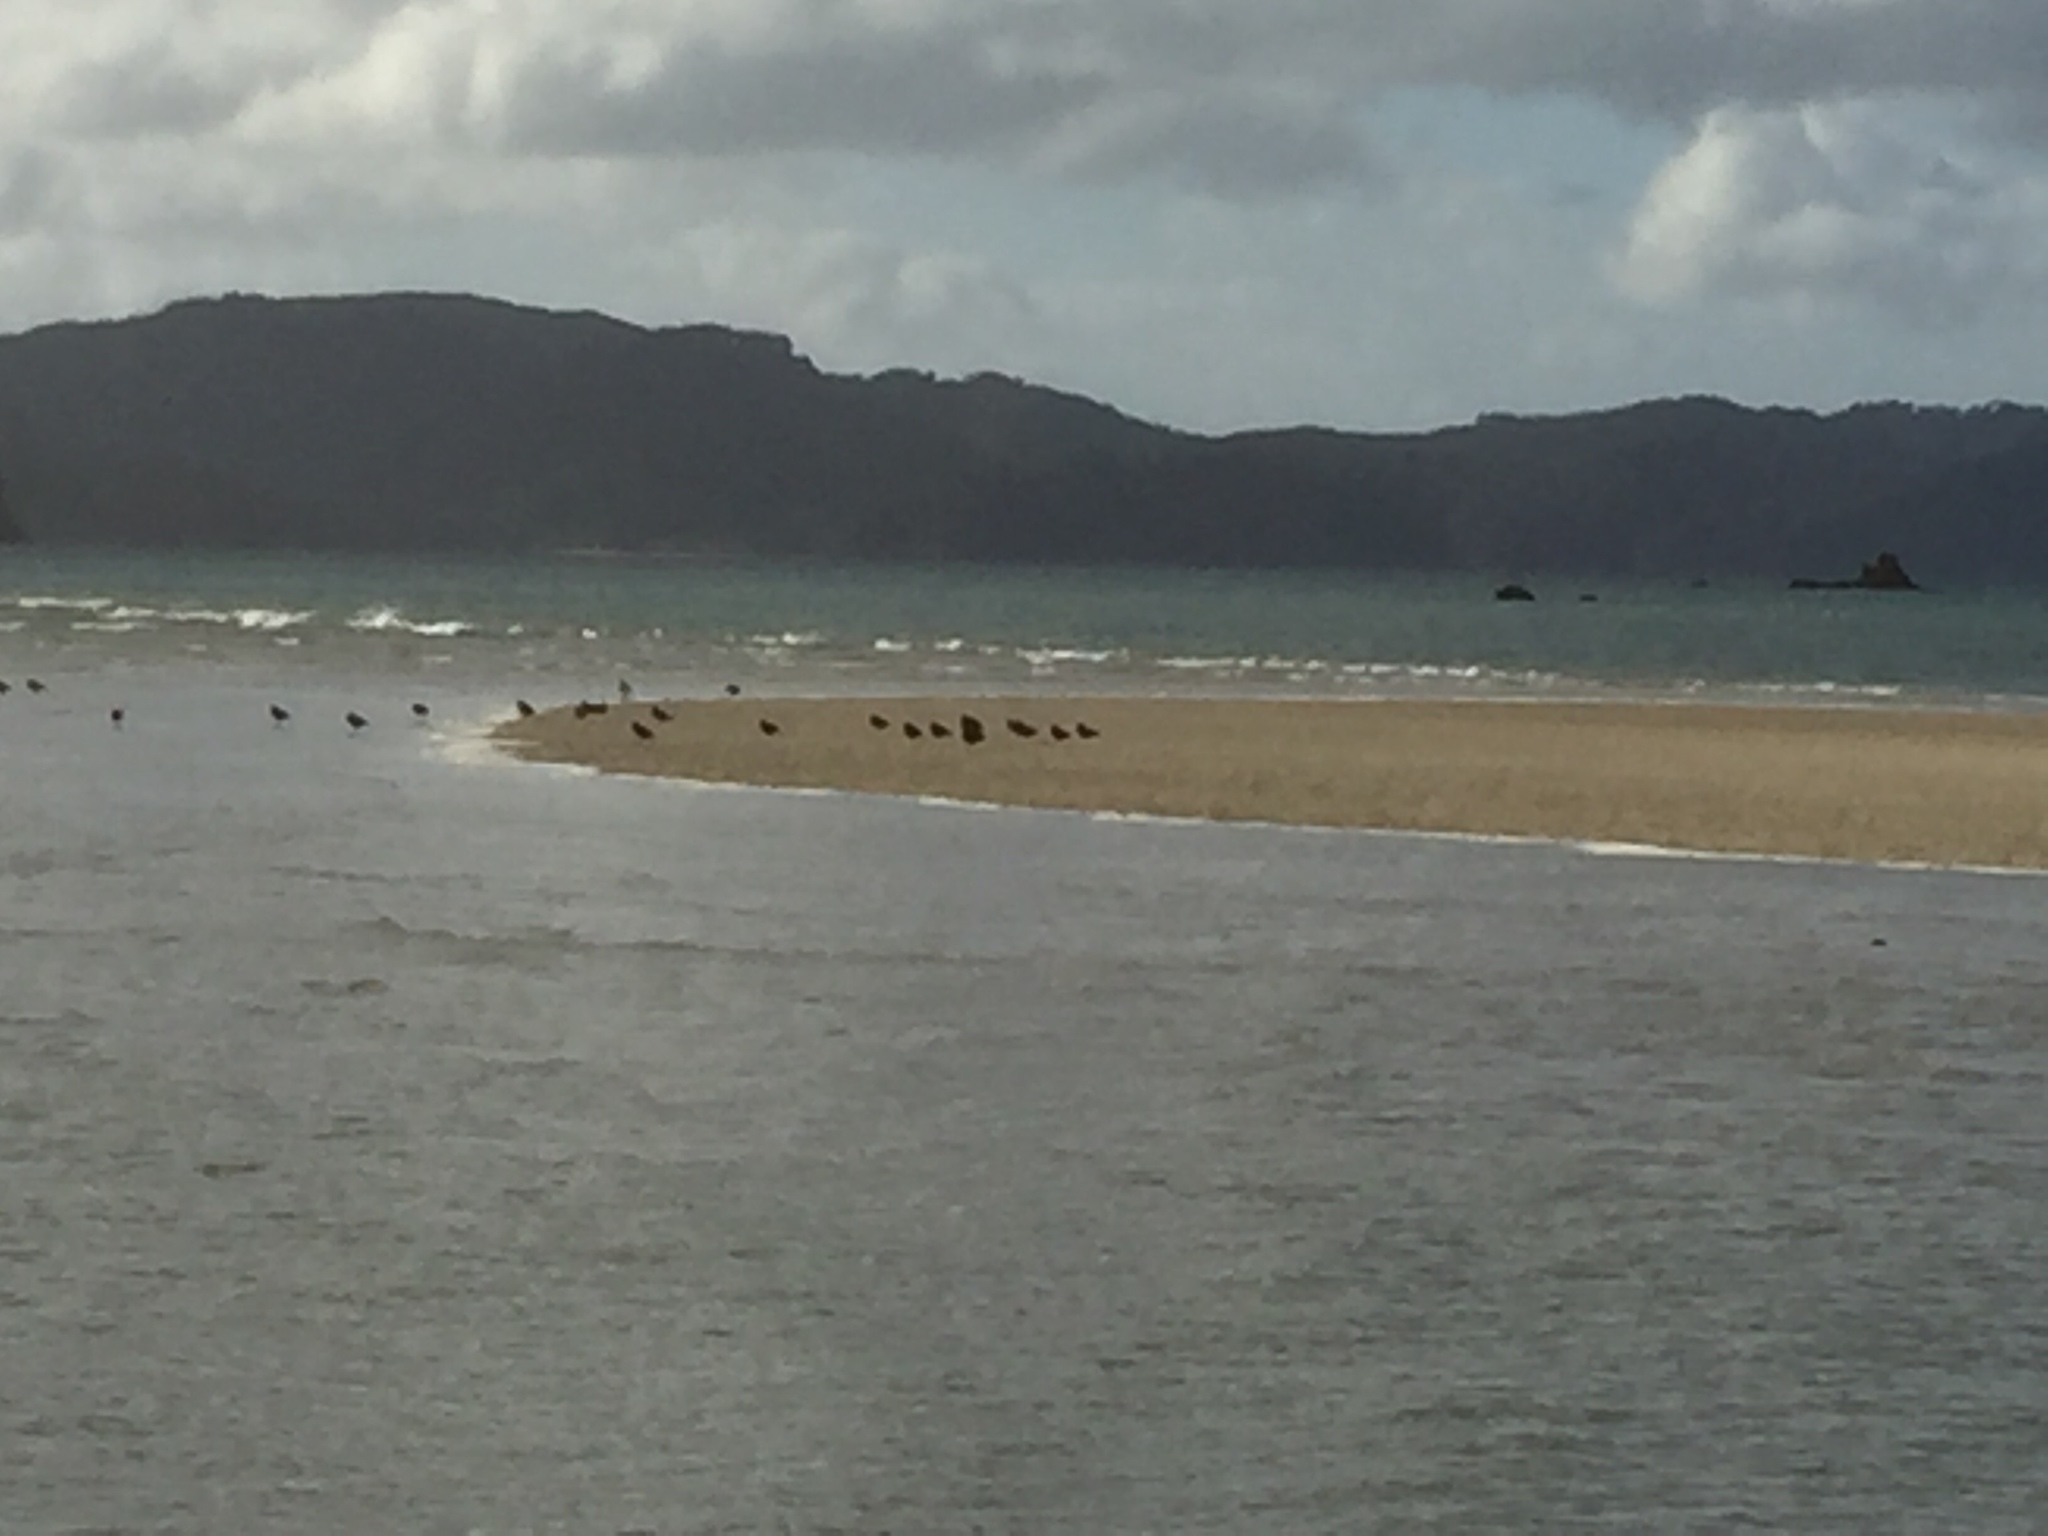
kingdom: Animalia
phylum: Chordata
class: Aves
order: Charadriiformes
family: Haematopodidae
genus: Haematopus
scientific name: Haematopus unicolor
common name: Variable oystercatcher
